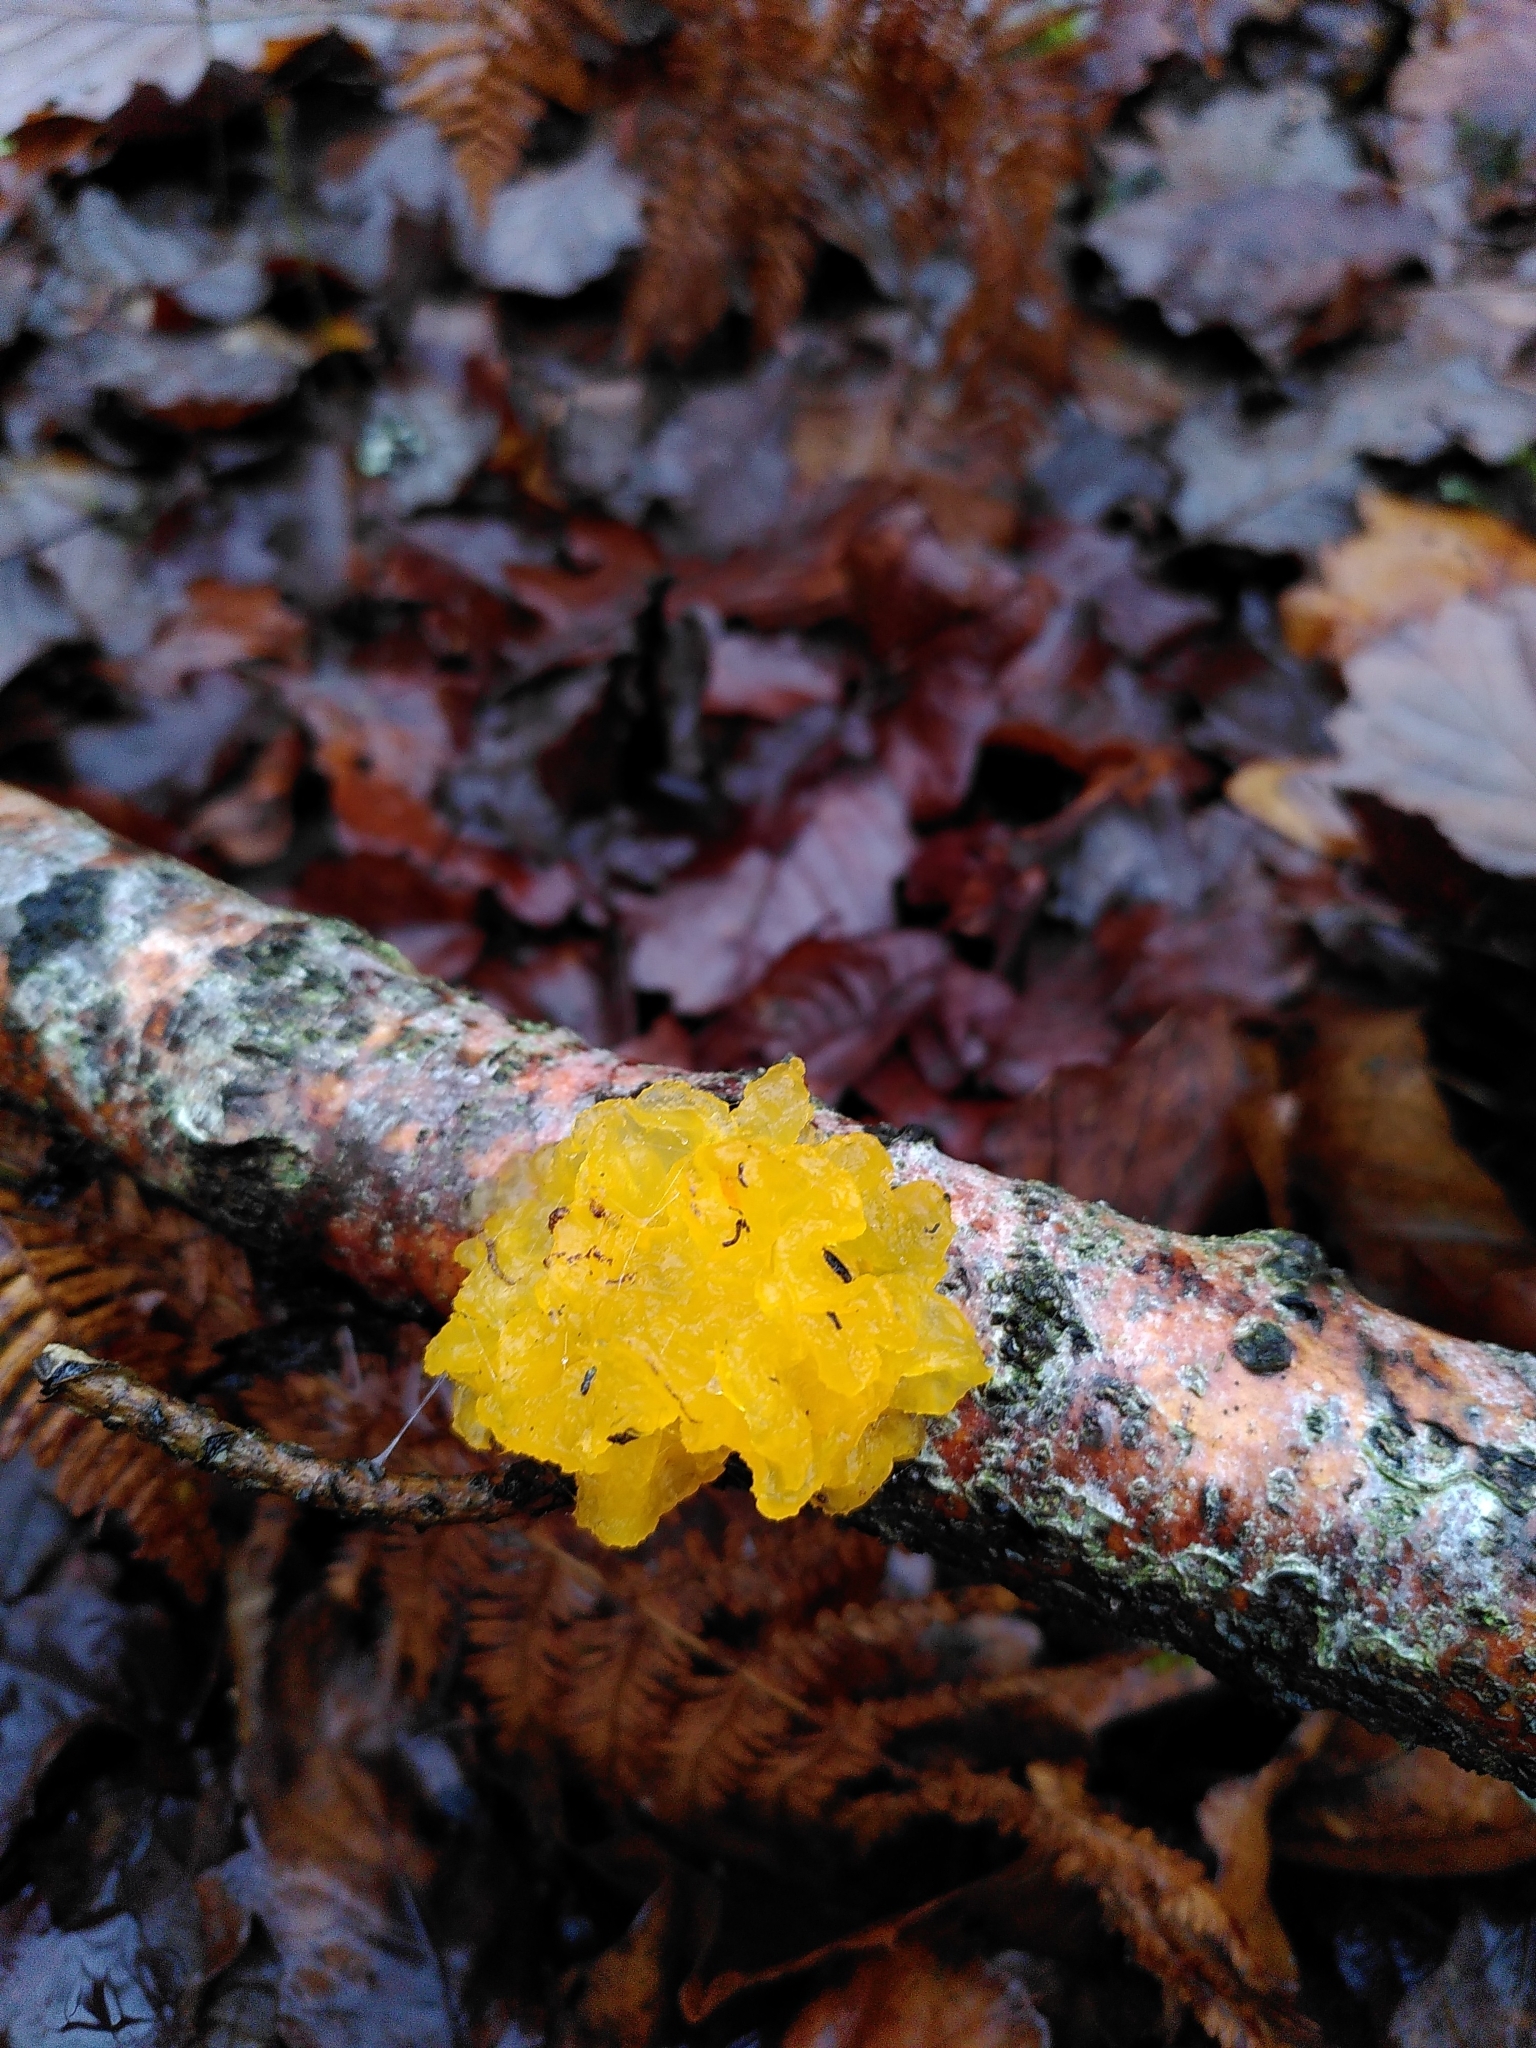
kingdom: Fungi
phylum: Basidiomycota
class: Tremellomycetes
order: Tremellales
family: Tremellaceae
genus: Tremella
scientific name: Tremella mesenterica
